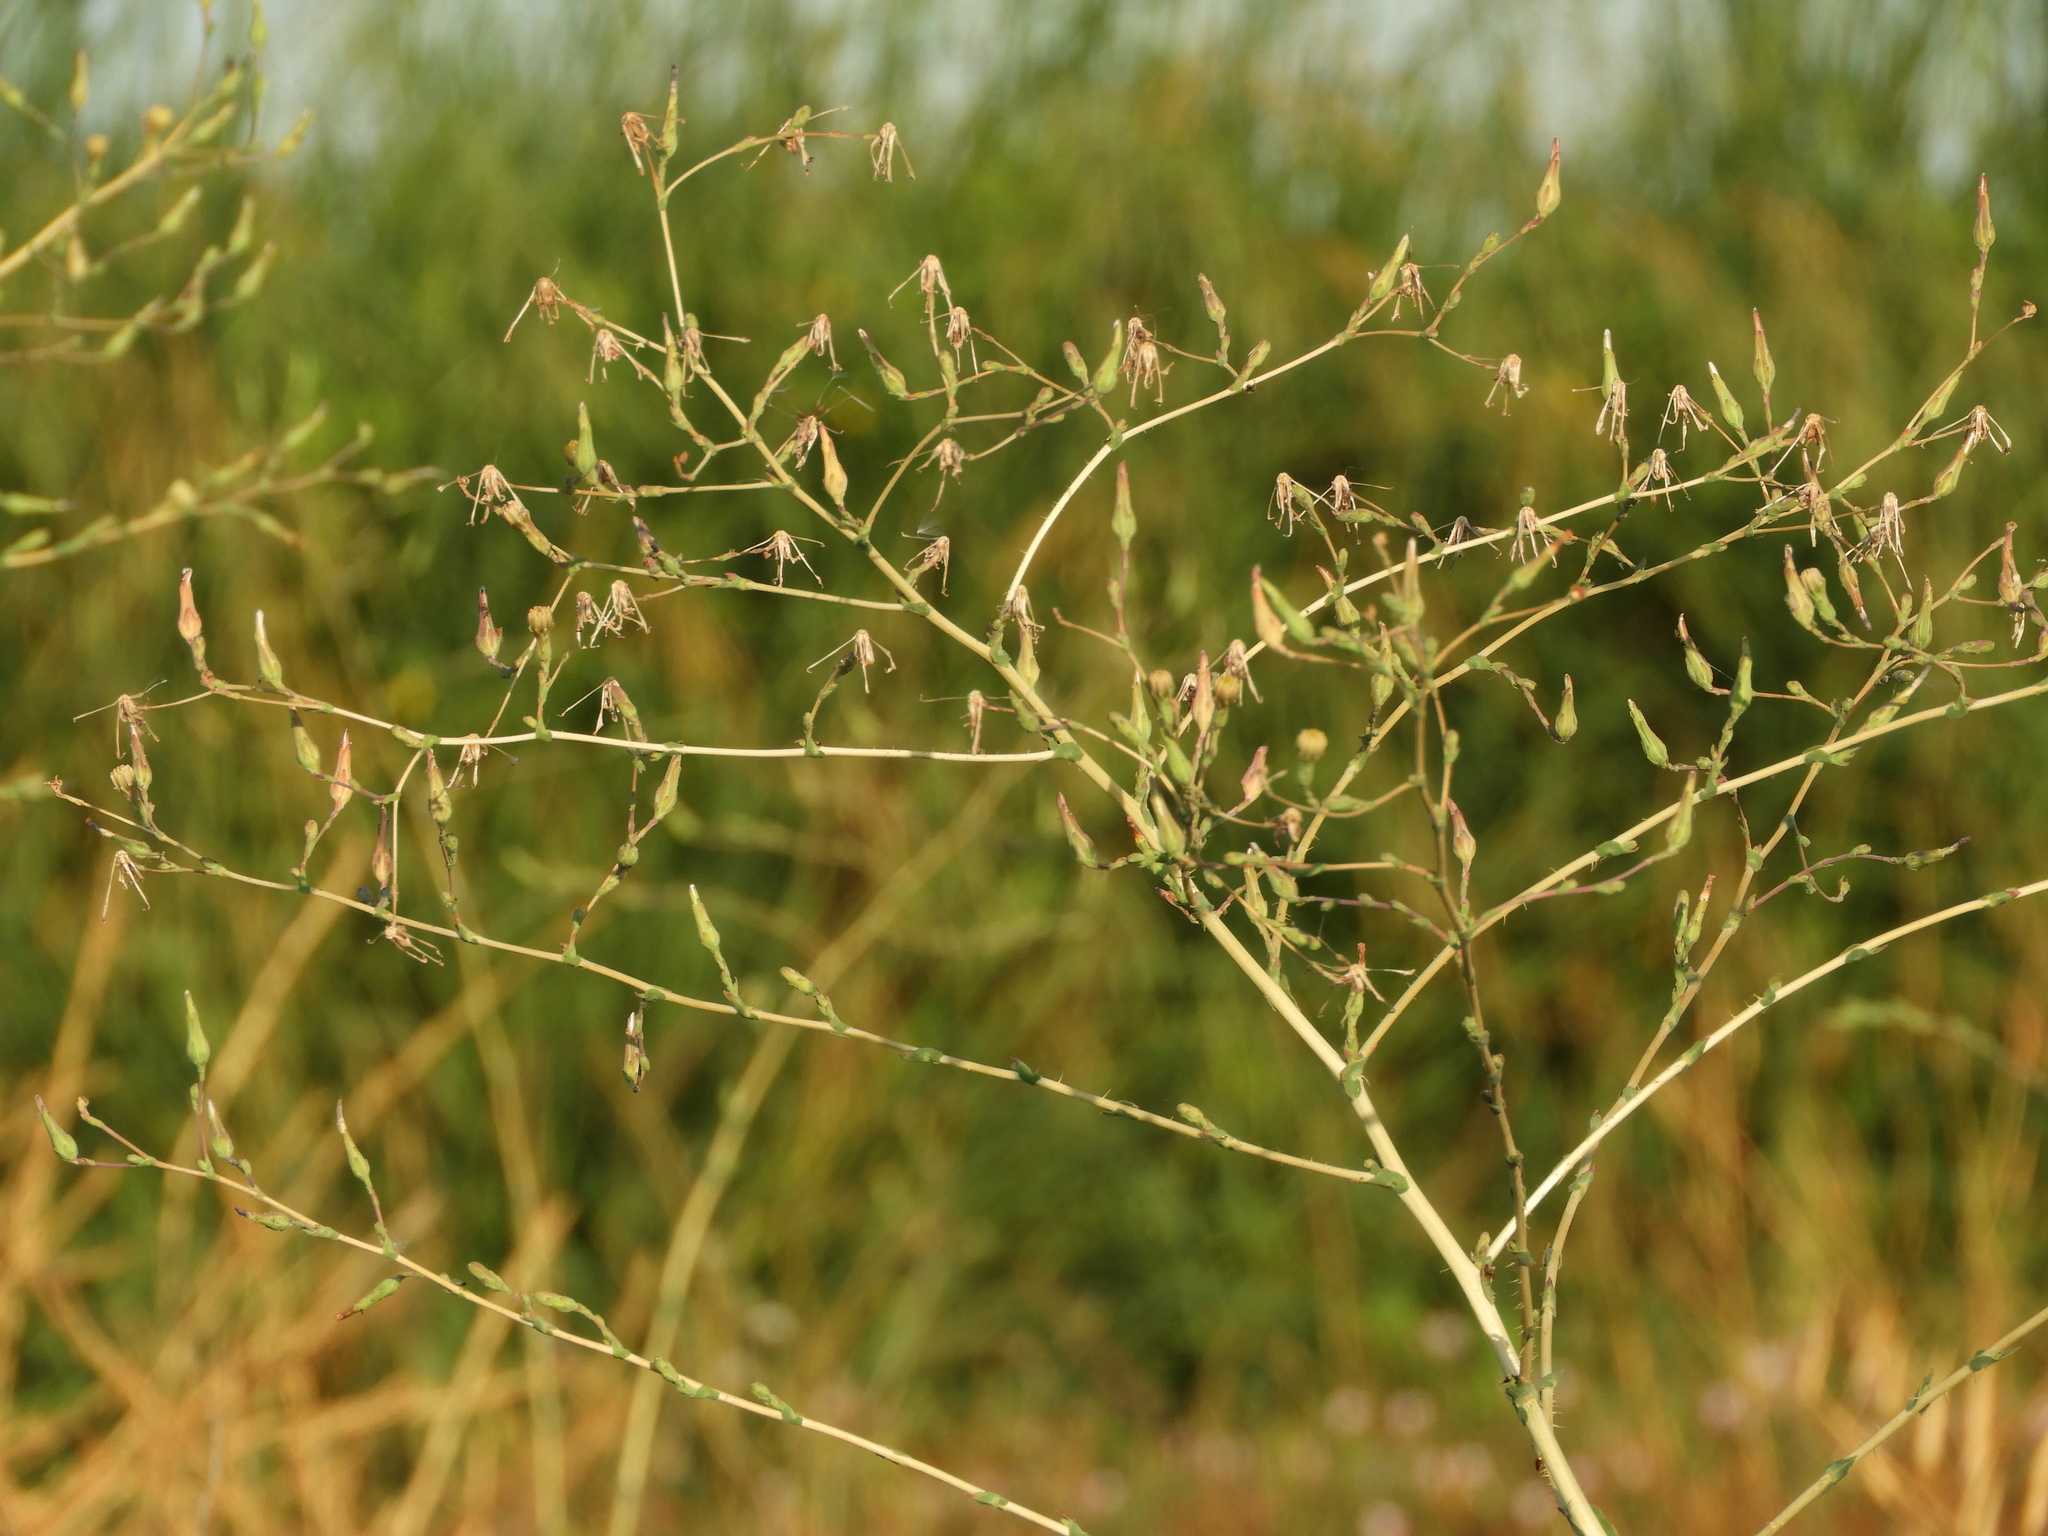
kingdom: Plantae
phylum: Tracheophyta
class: Magnoliopsida
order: Asterales
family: Asteraceae
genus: Lactuca
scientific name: Lactuca serriola
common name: Prickly lettuce
